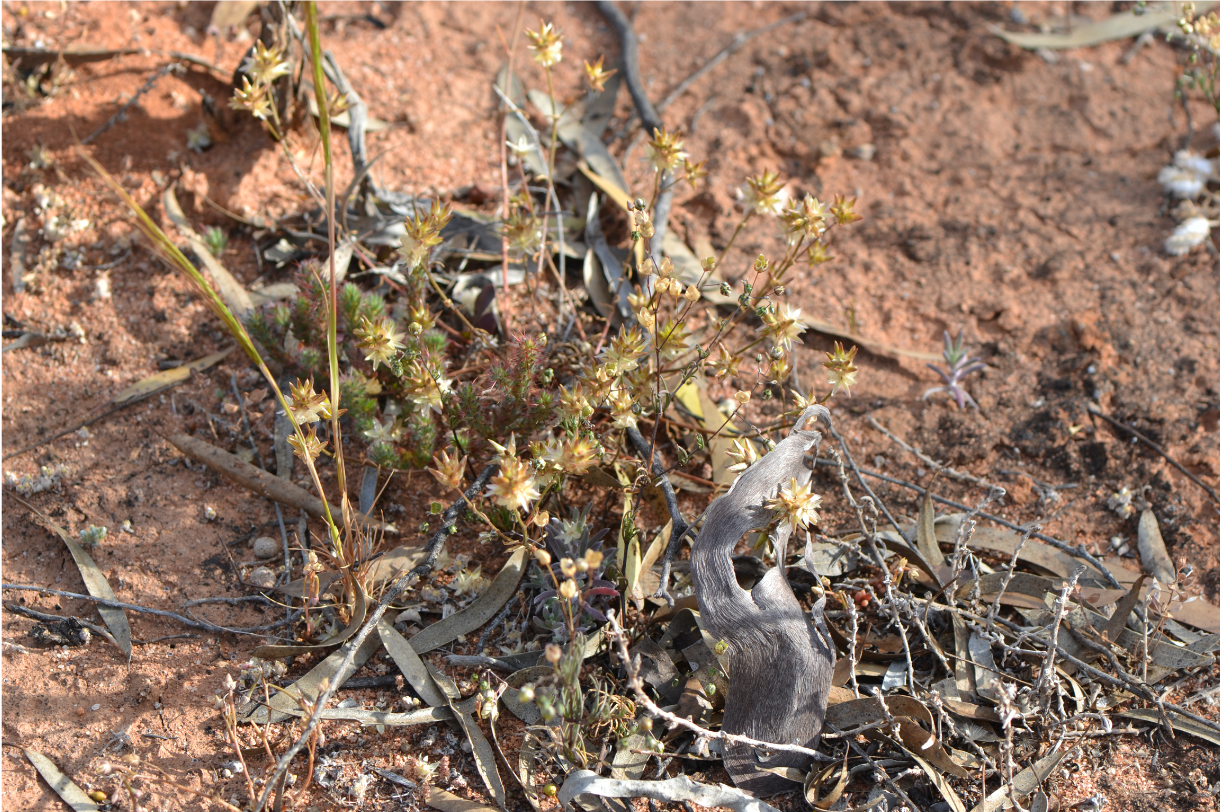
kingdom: Plantae
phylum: Tracheophyta
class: Magnoliopsida
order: Caryophyllales
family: Amaranthaceae
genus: Ptilotus
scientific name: Ptilotus eremita
